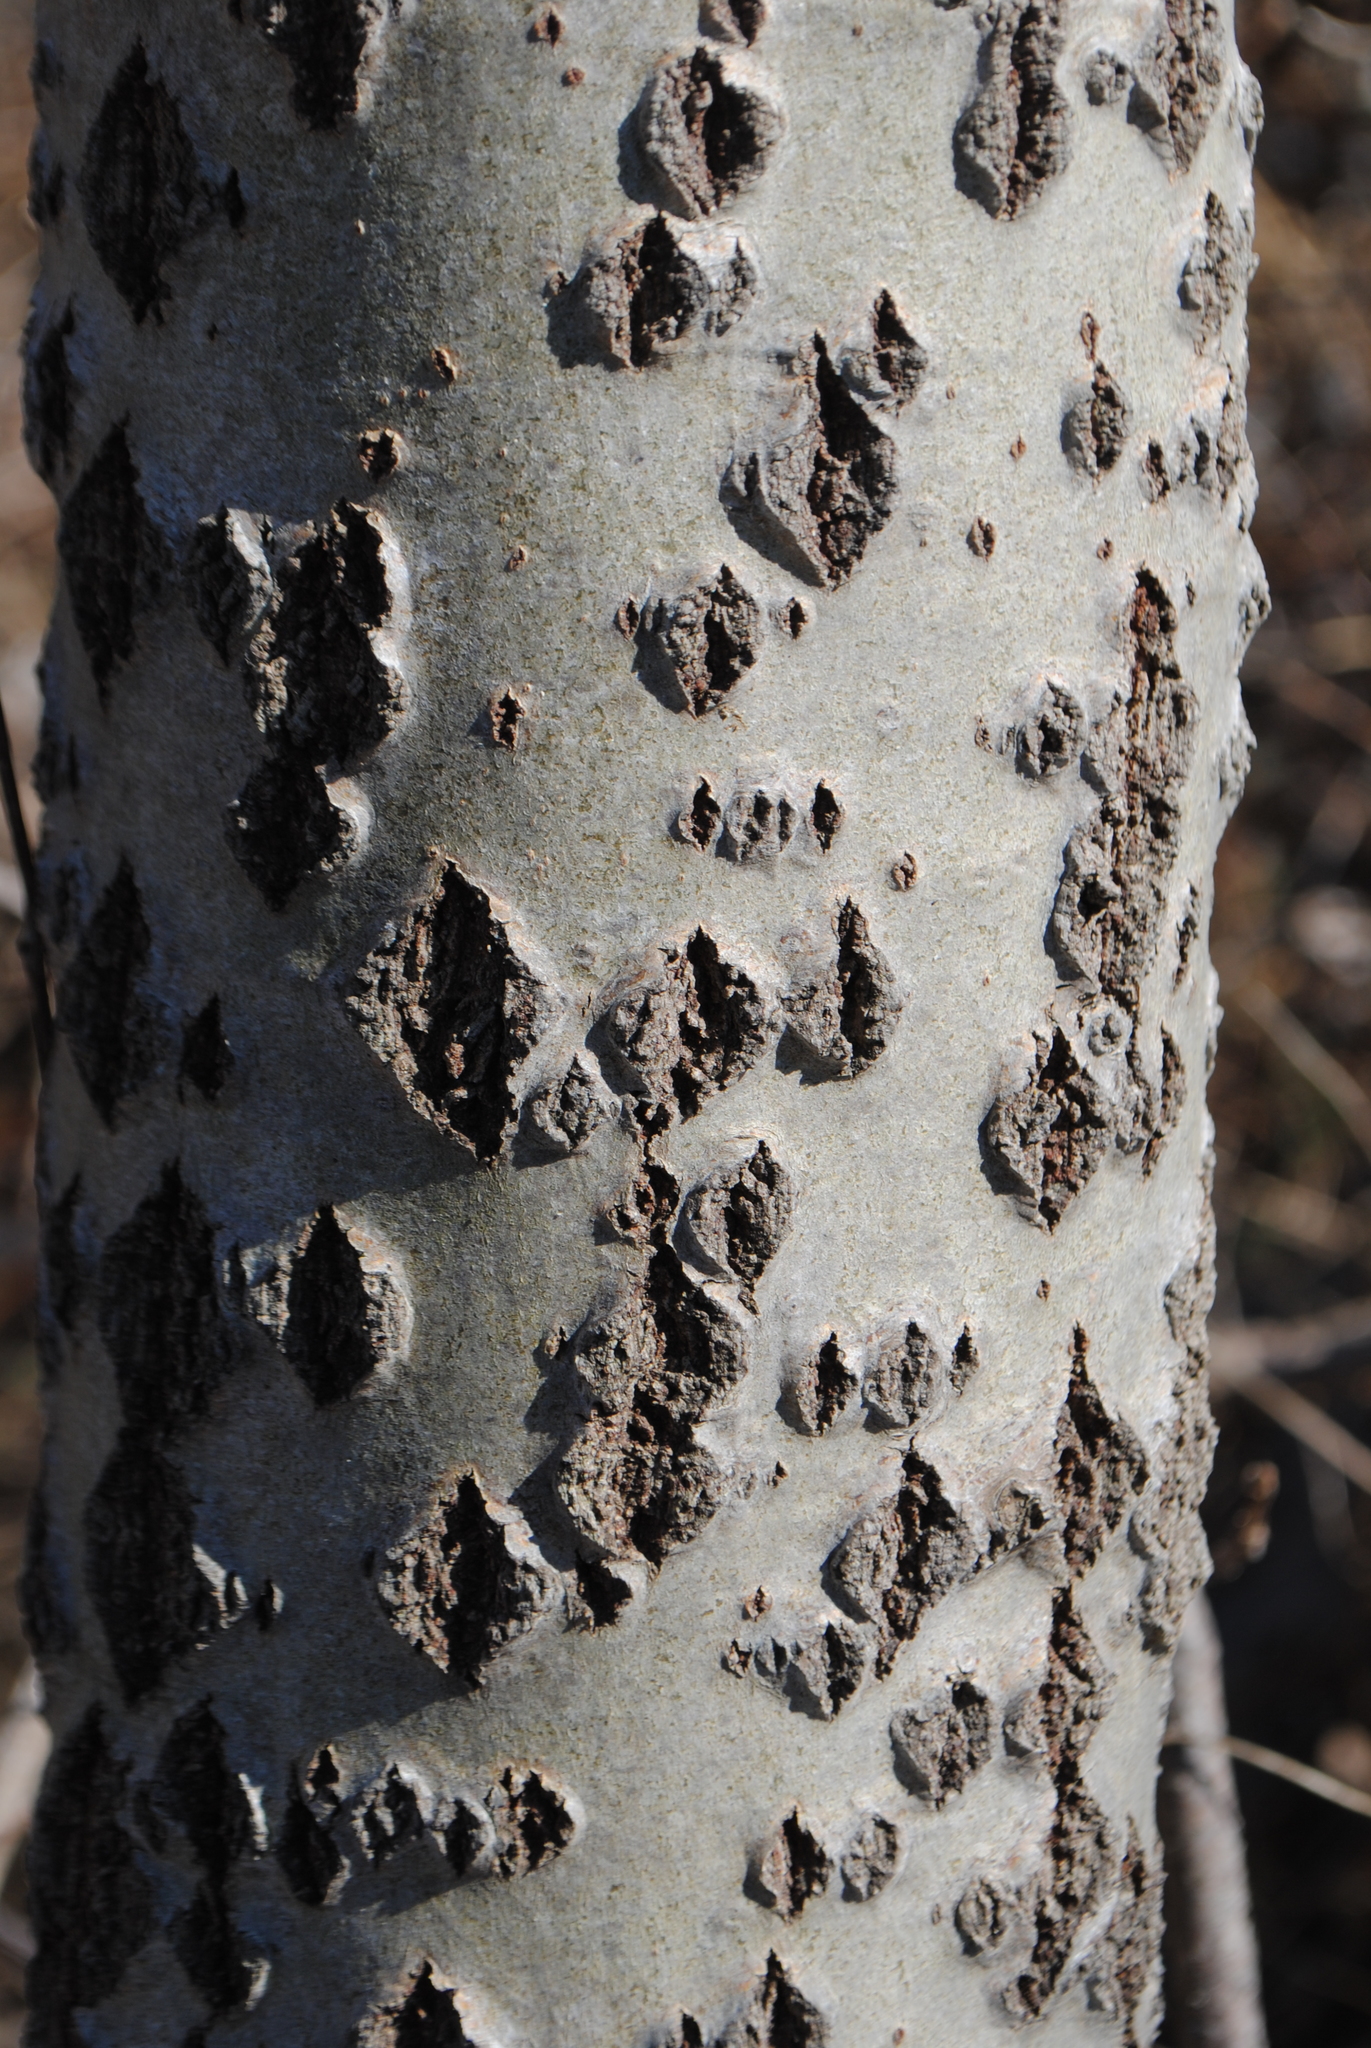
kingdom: Plantae
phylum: Tracheophyta
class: Magnoliopsida
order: Malpighiales
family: Salicaceae
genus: Populus
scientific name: Populus alba
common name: White poplar
